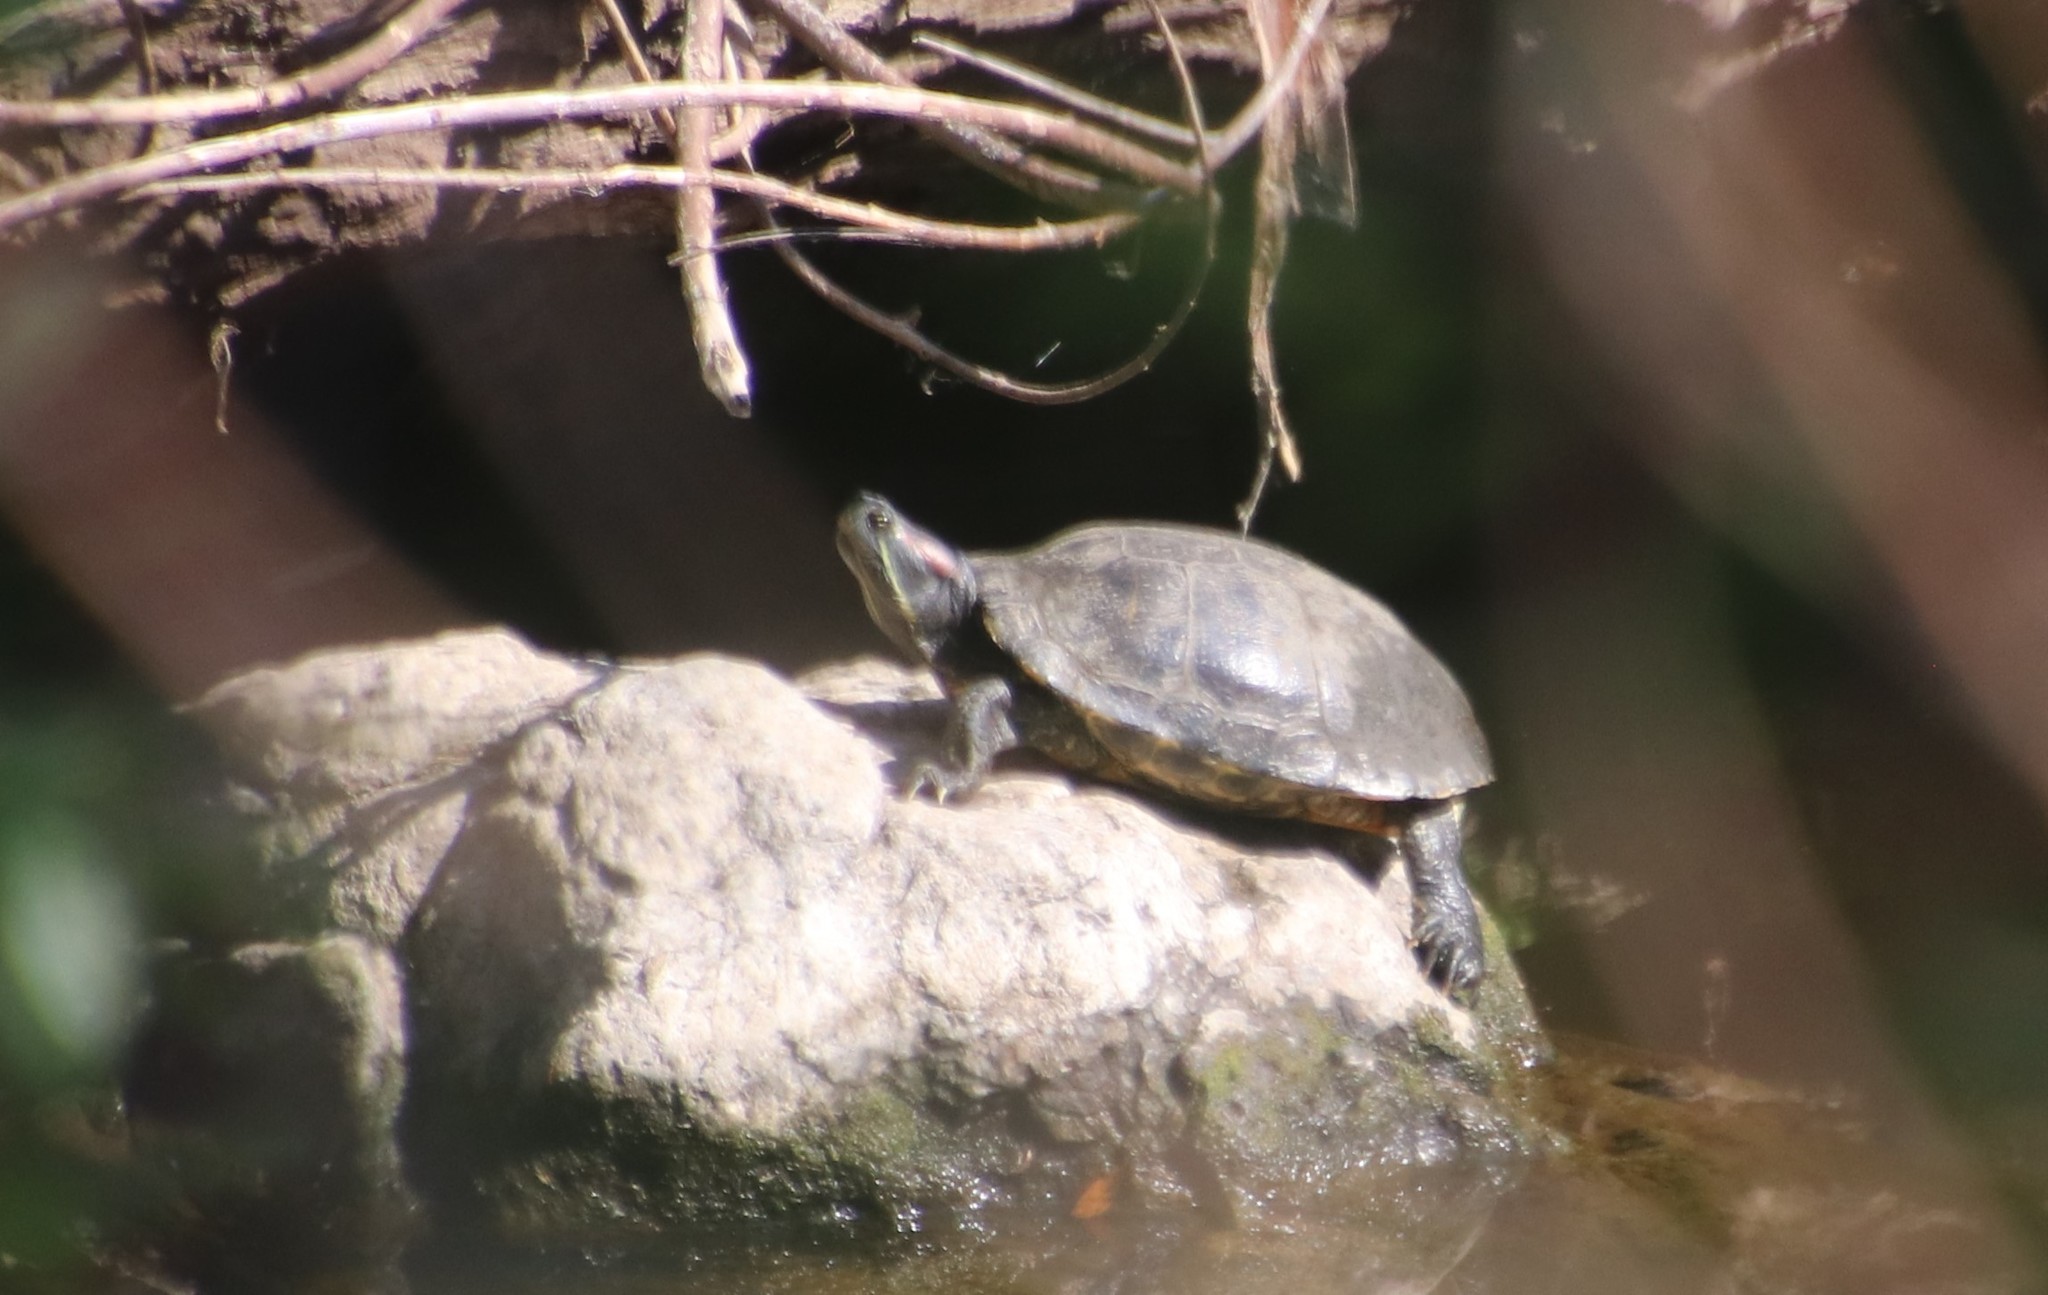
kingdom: Animalia
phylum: Chordata
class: Testudines
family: Emydidae
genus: Trachemys
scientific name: Trachemys scripta
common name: Slider
